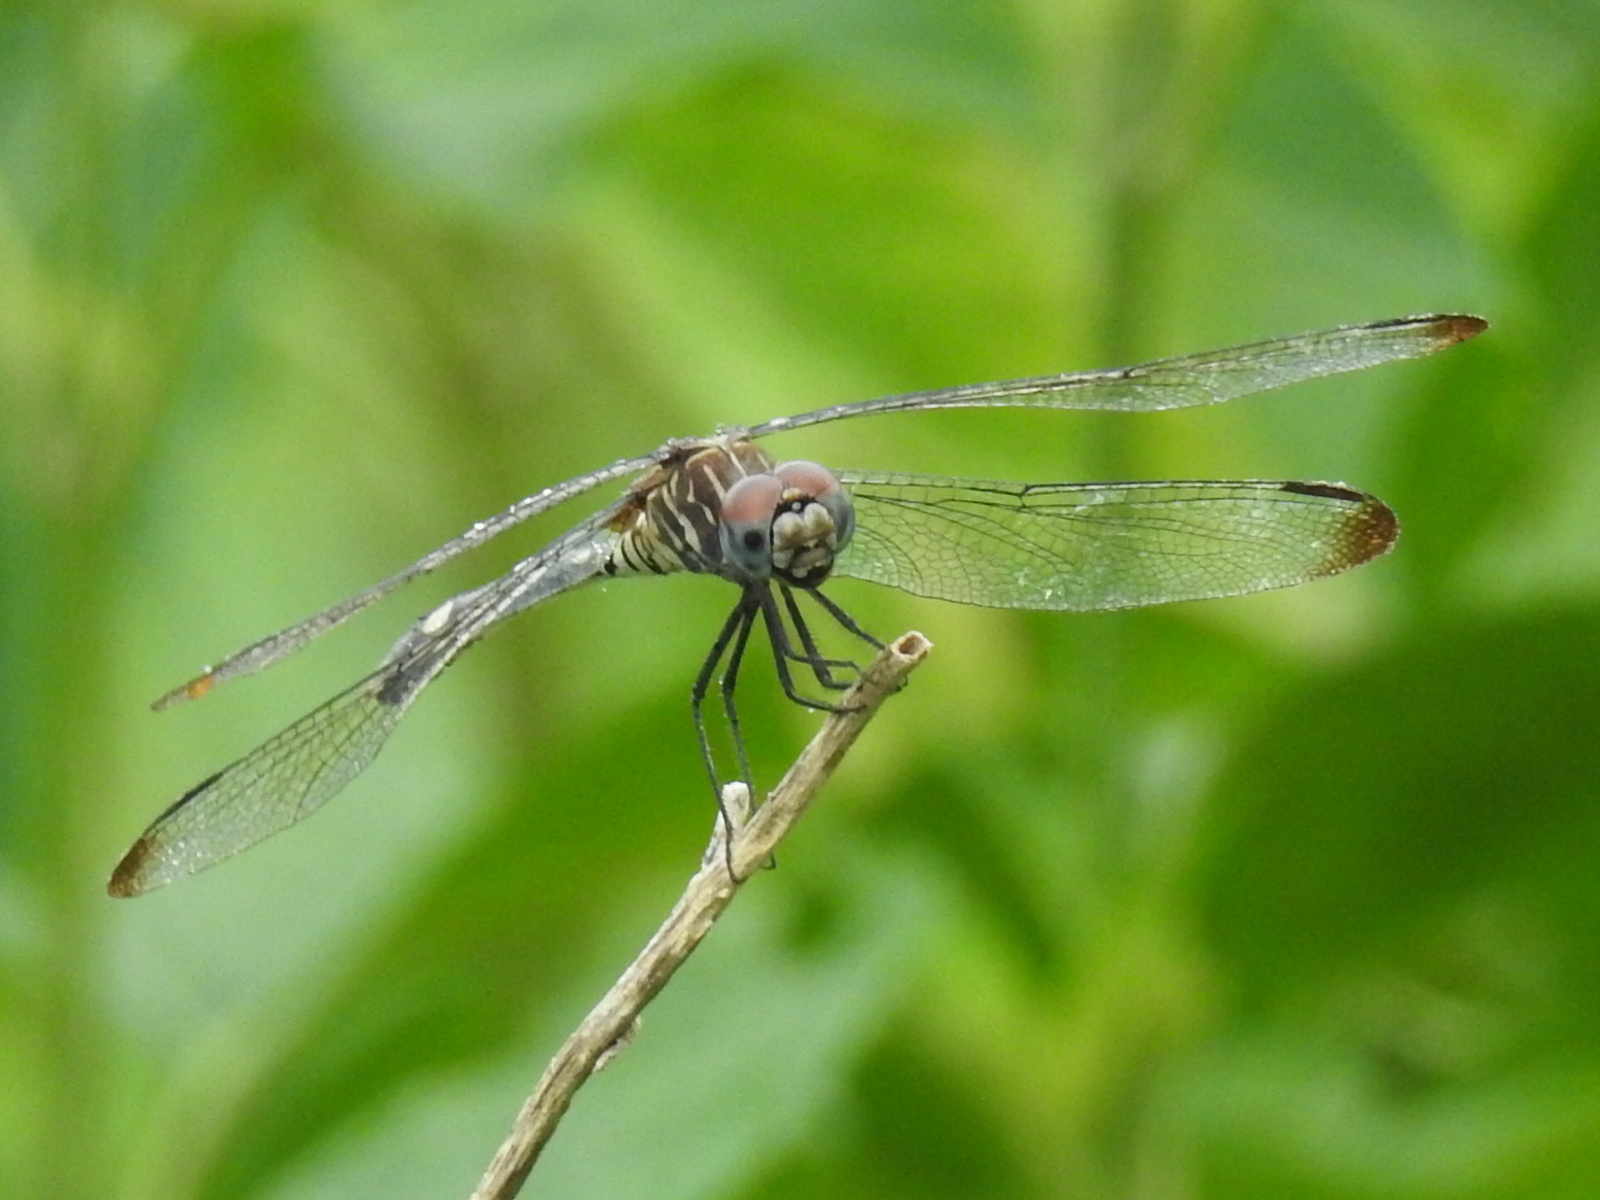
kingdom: Animalia
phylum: Arthropoda
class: Insecta
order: Odonata
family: Libellulidae
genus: Dythemis
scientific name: Dythemis velox
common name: Swift setwing
